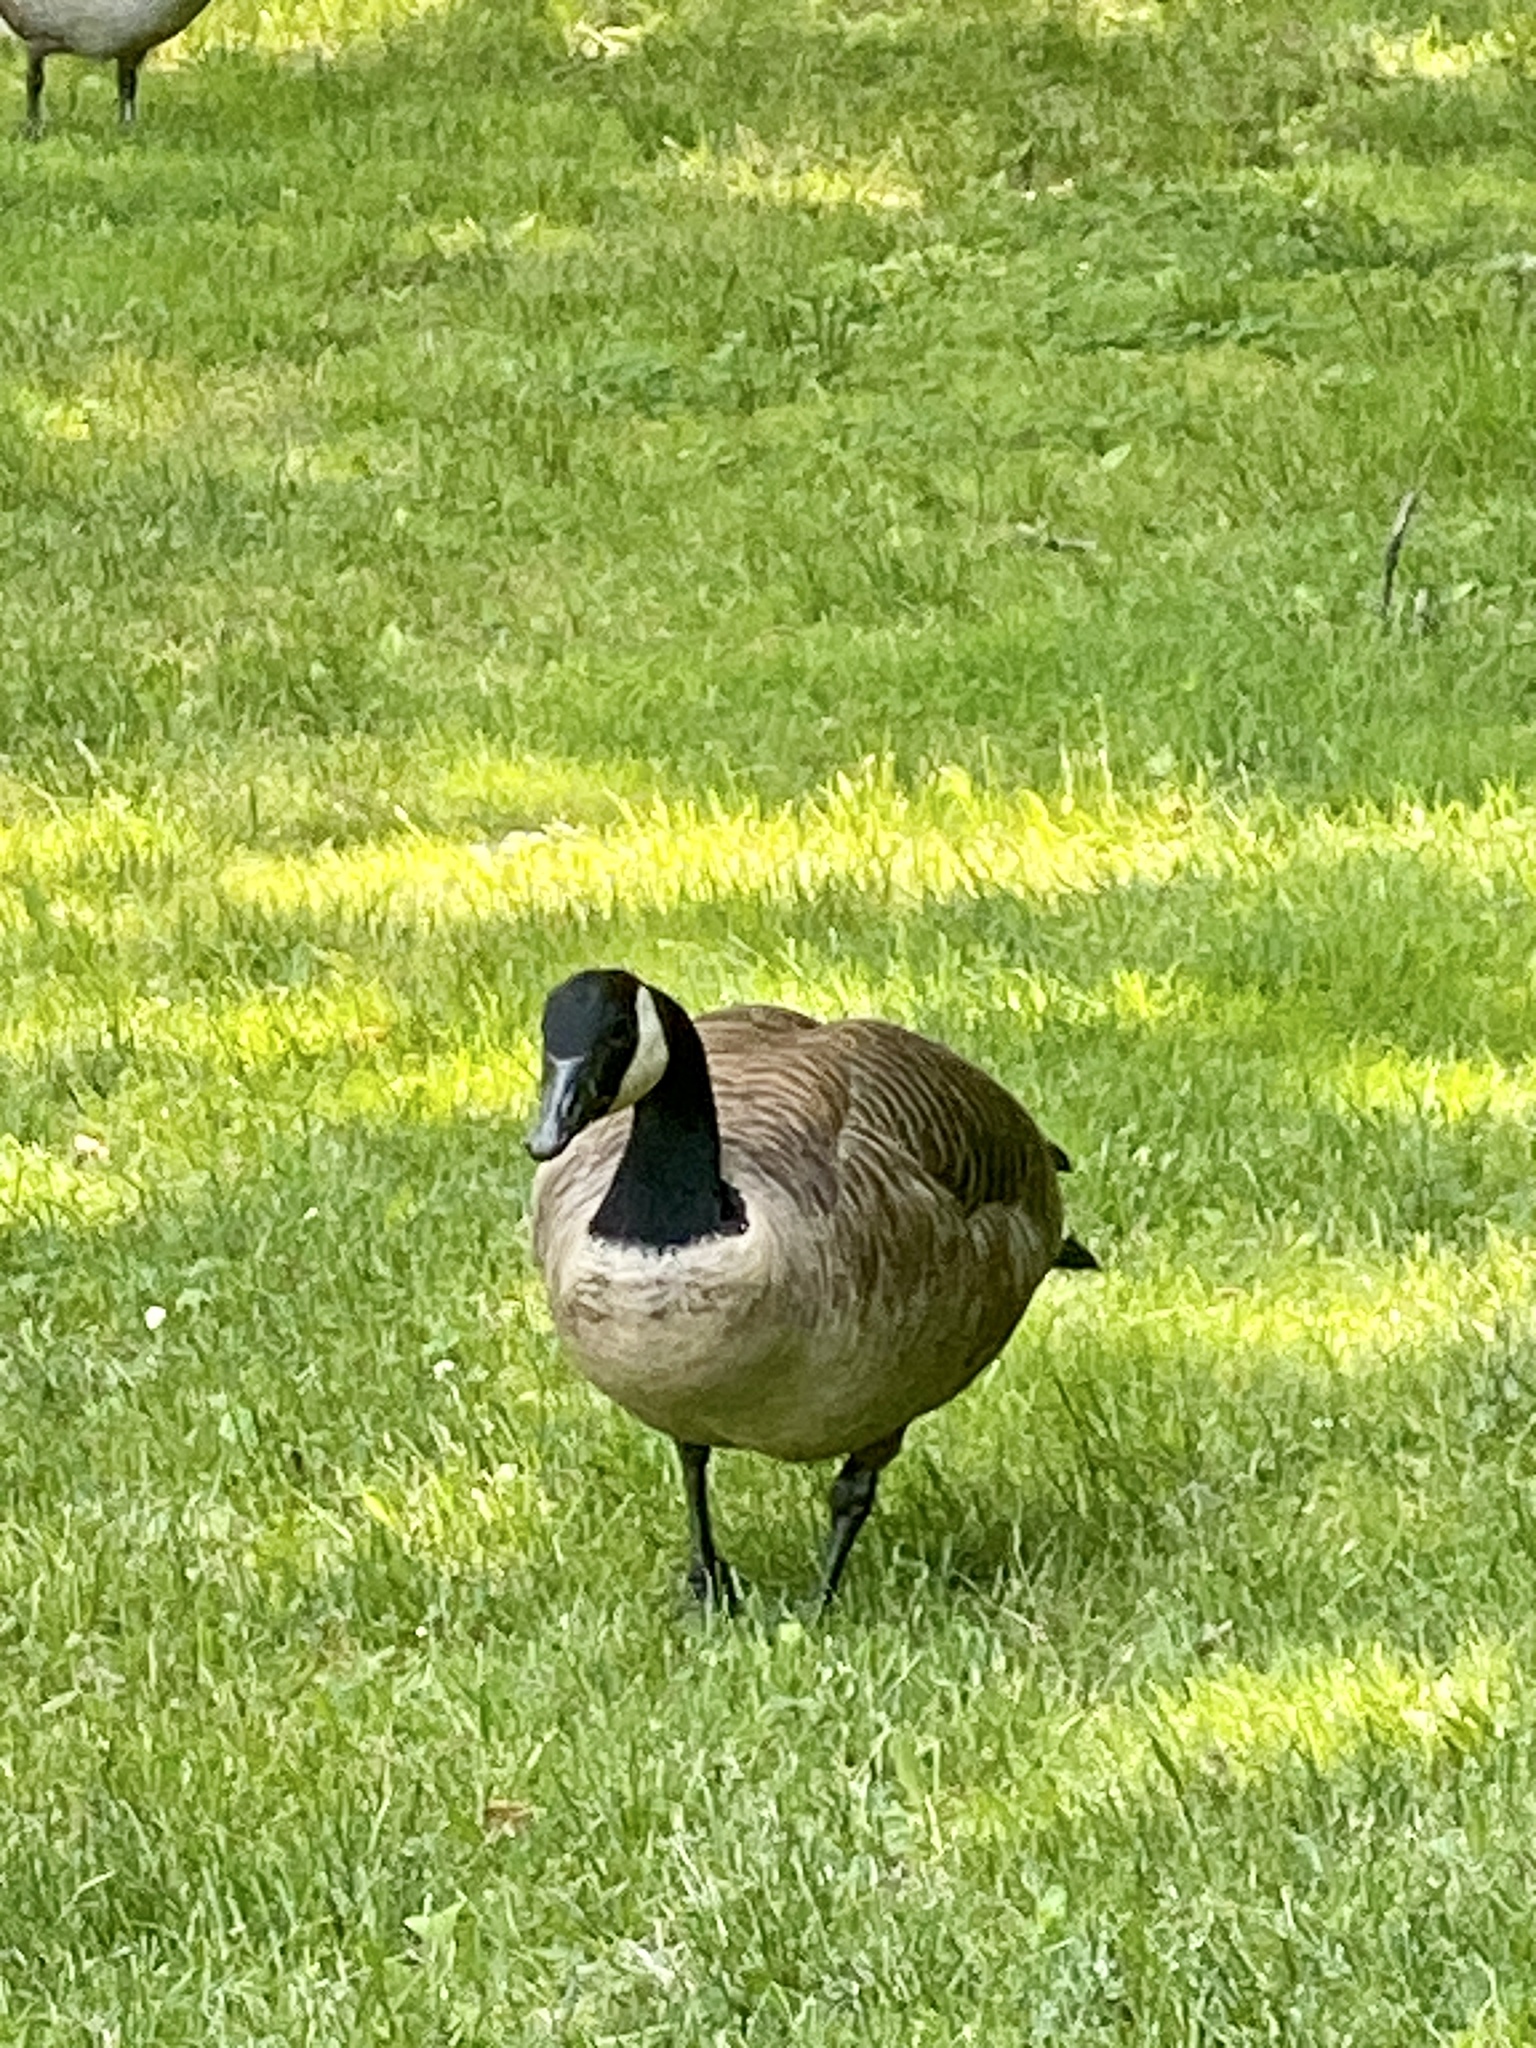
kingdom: Animalia
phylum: Chordata
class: Aves
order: Anseriformes
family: Anatidae
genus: Branta
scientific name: Branta canadensis
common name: Canada goose
